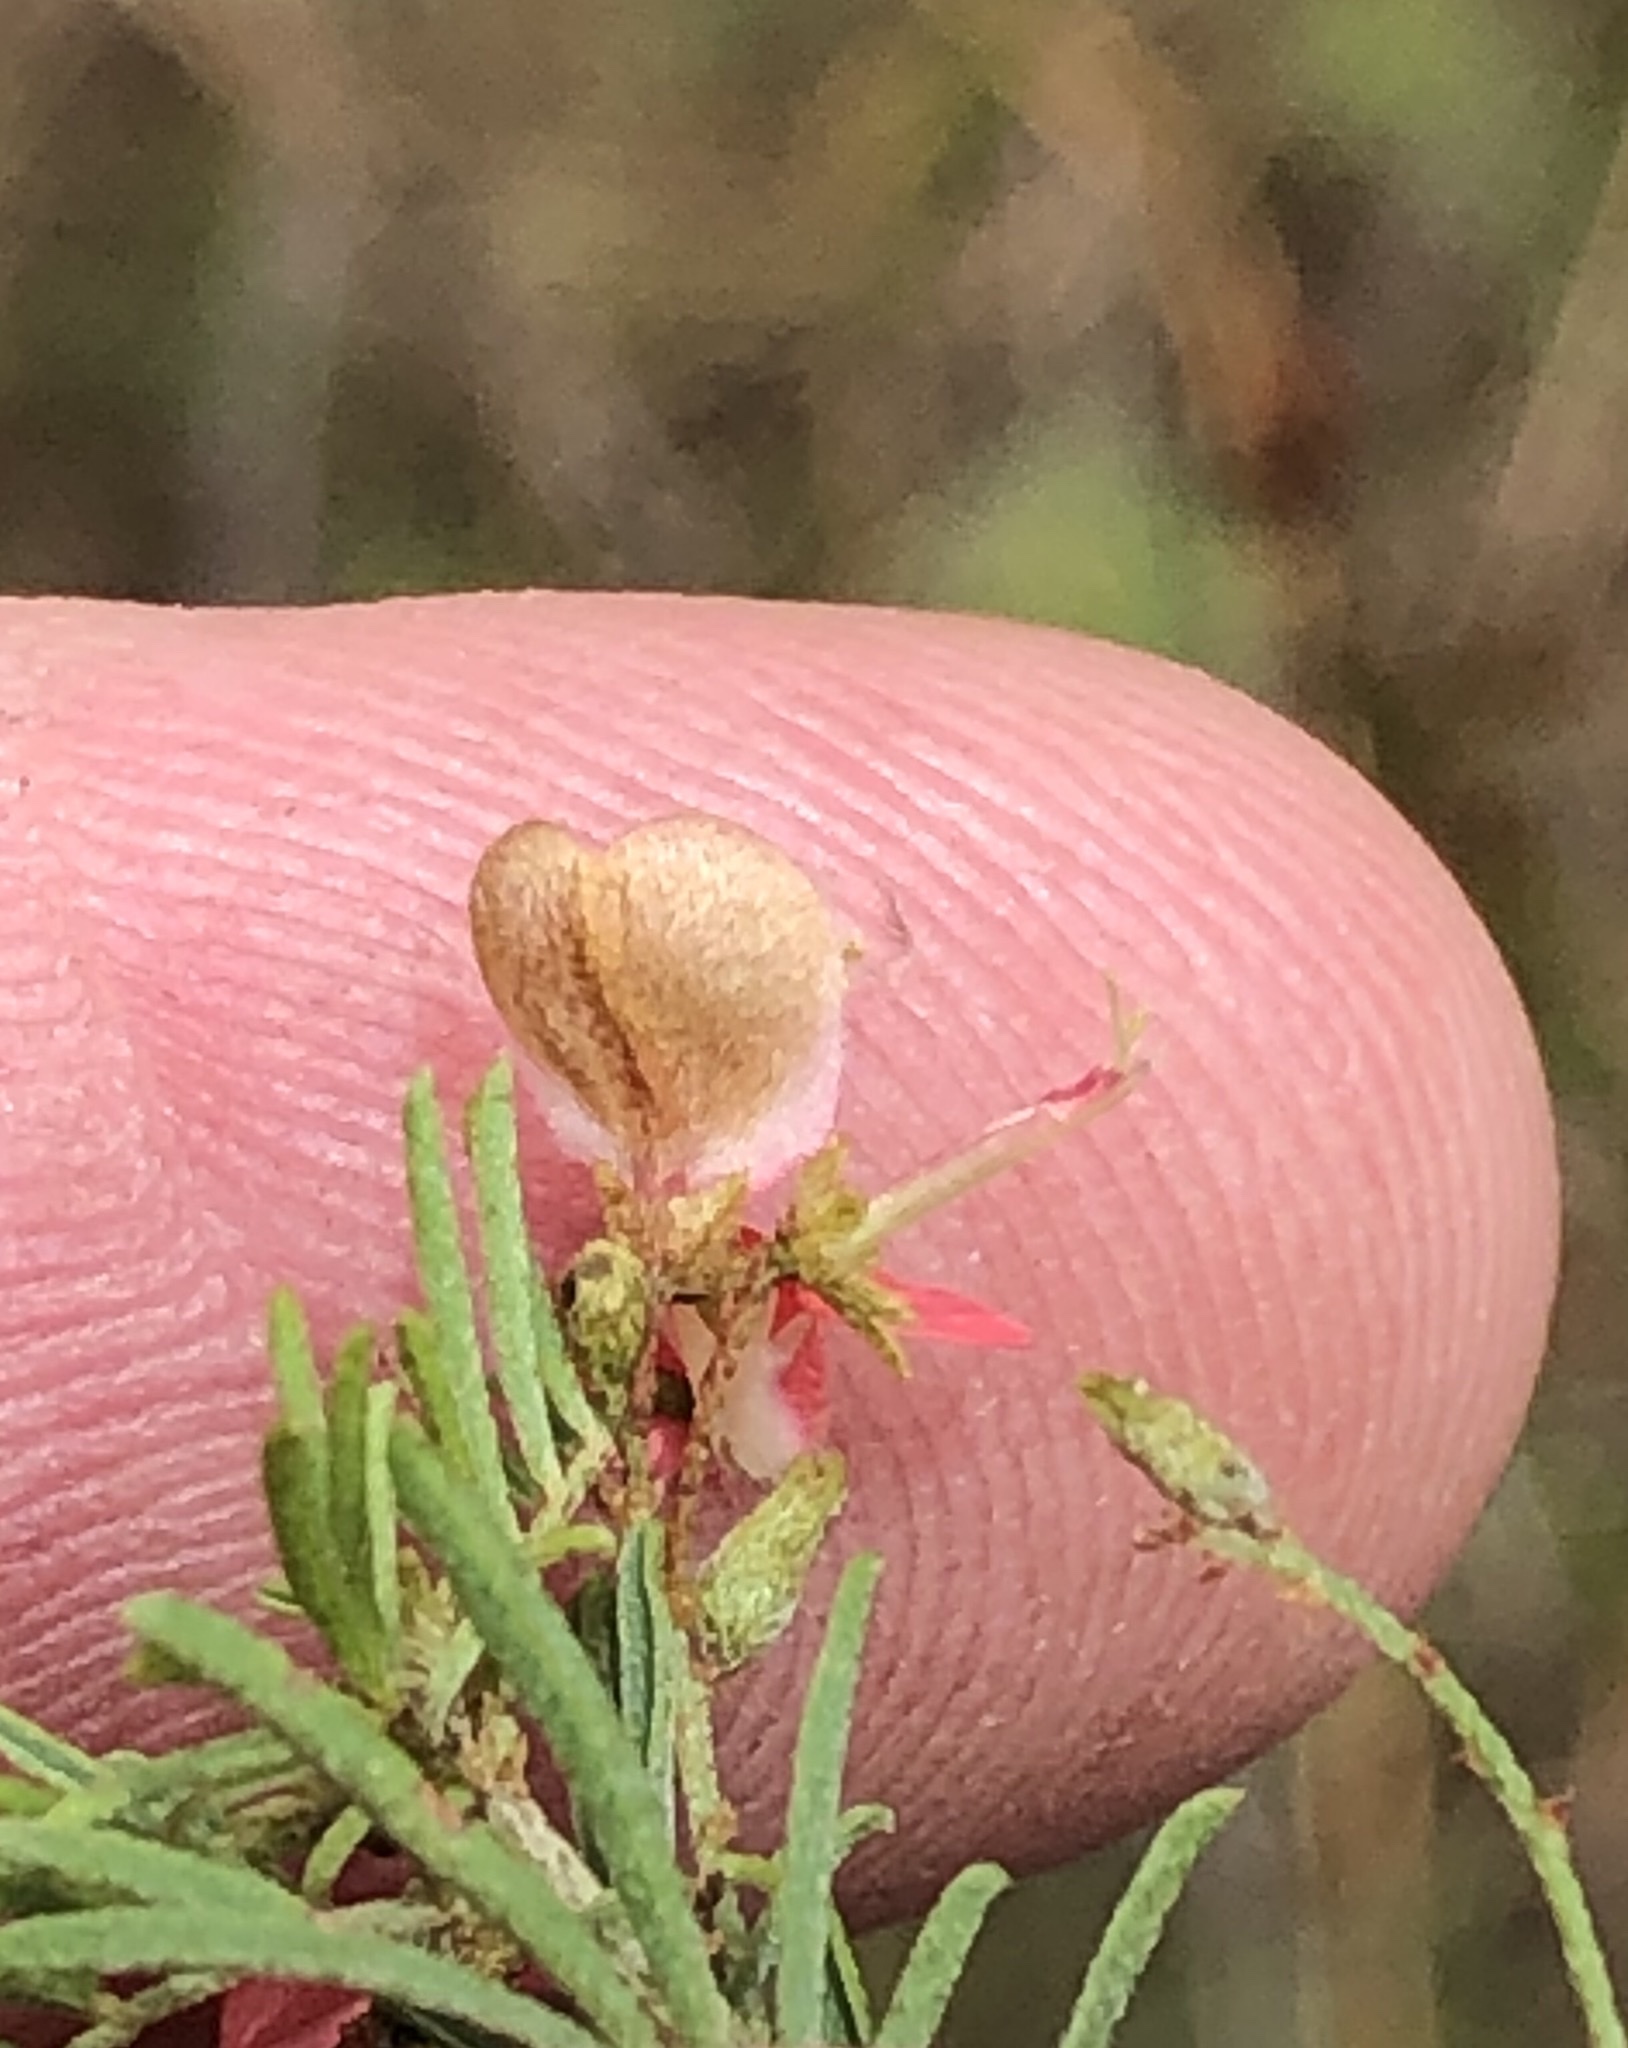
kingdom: Plantae
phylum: Tracheophyta
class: Magnoliopsida
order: Fabales
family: Fabaceae
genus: Indigofera
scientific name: Indigofera verrucosa
